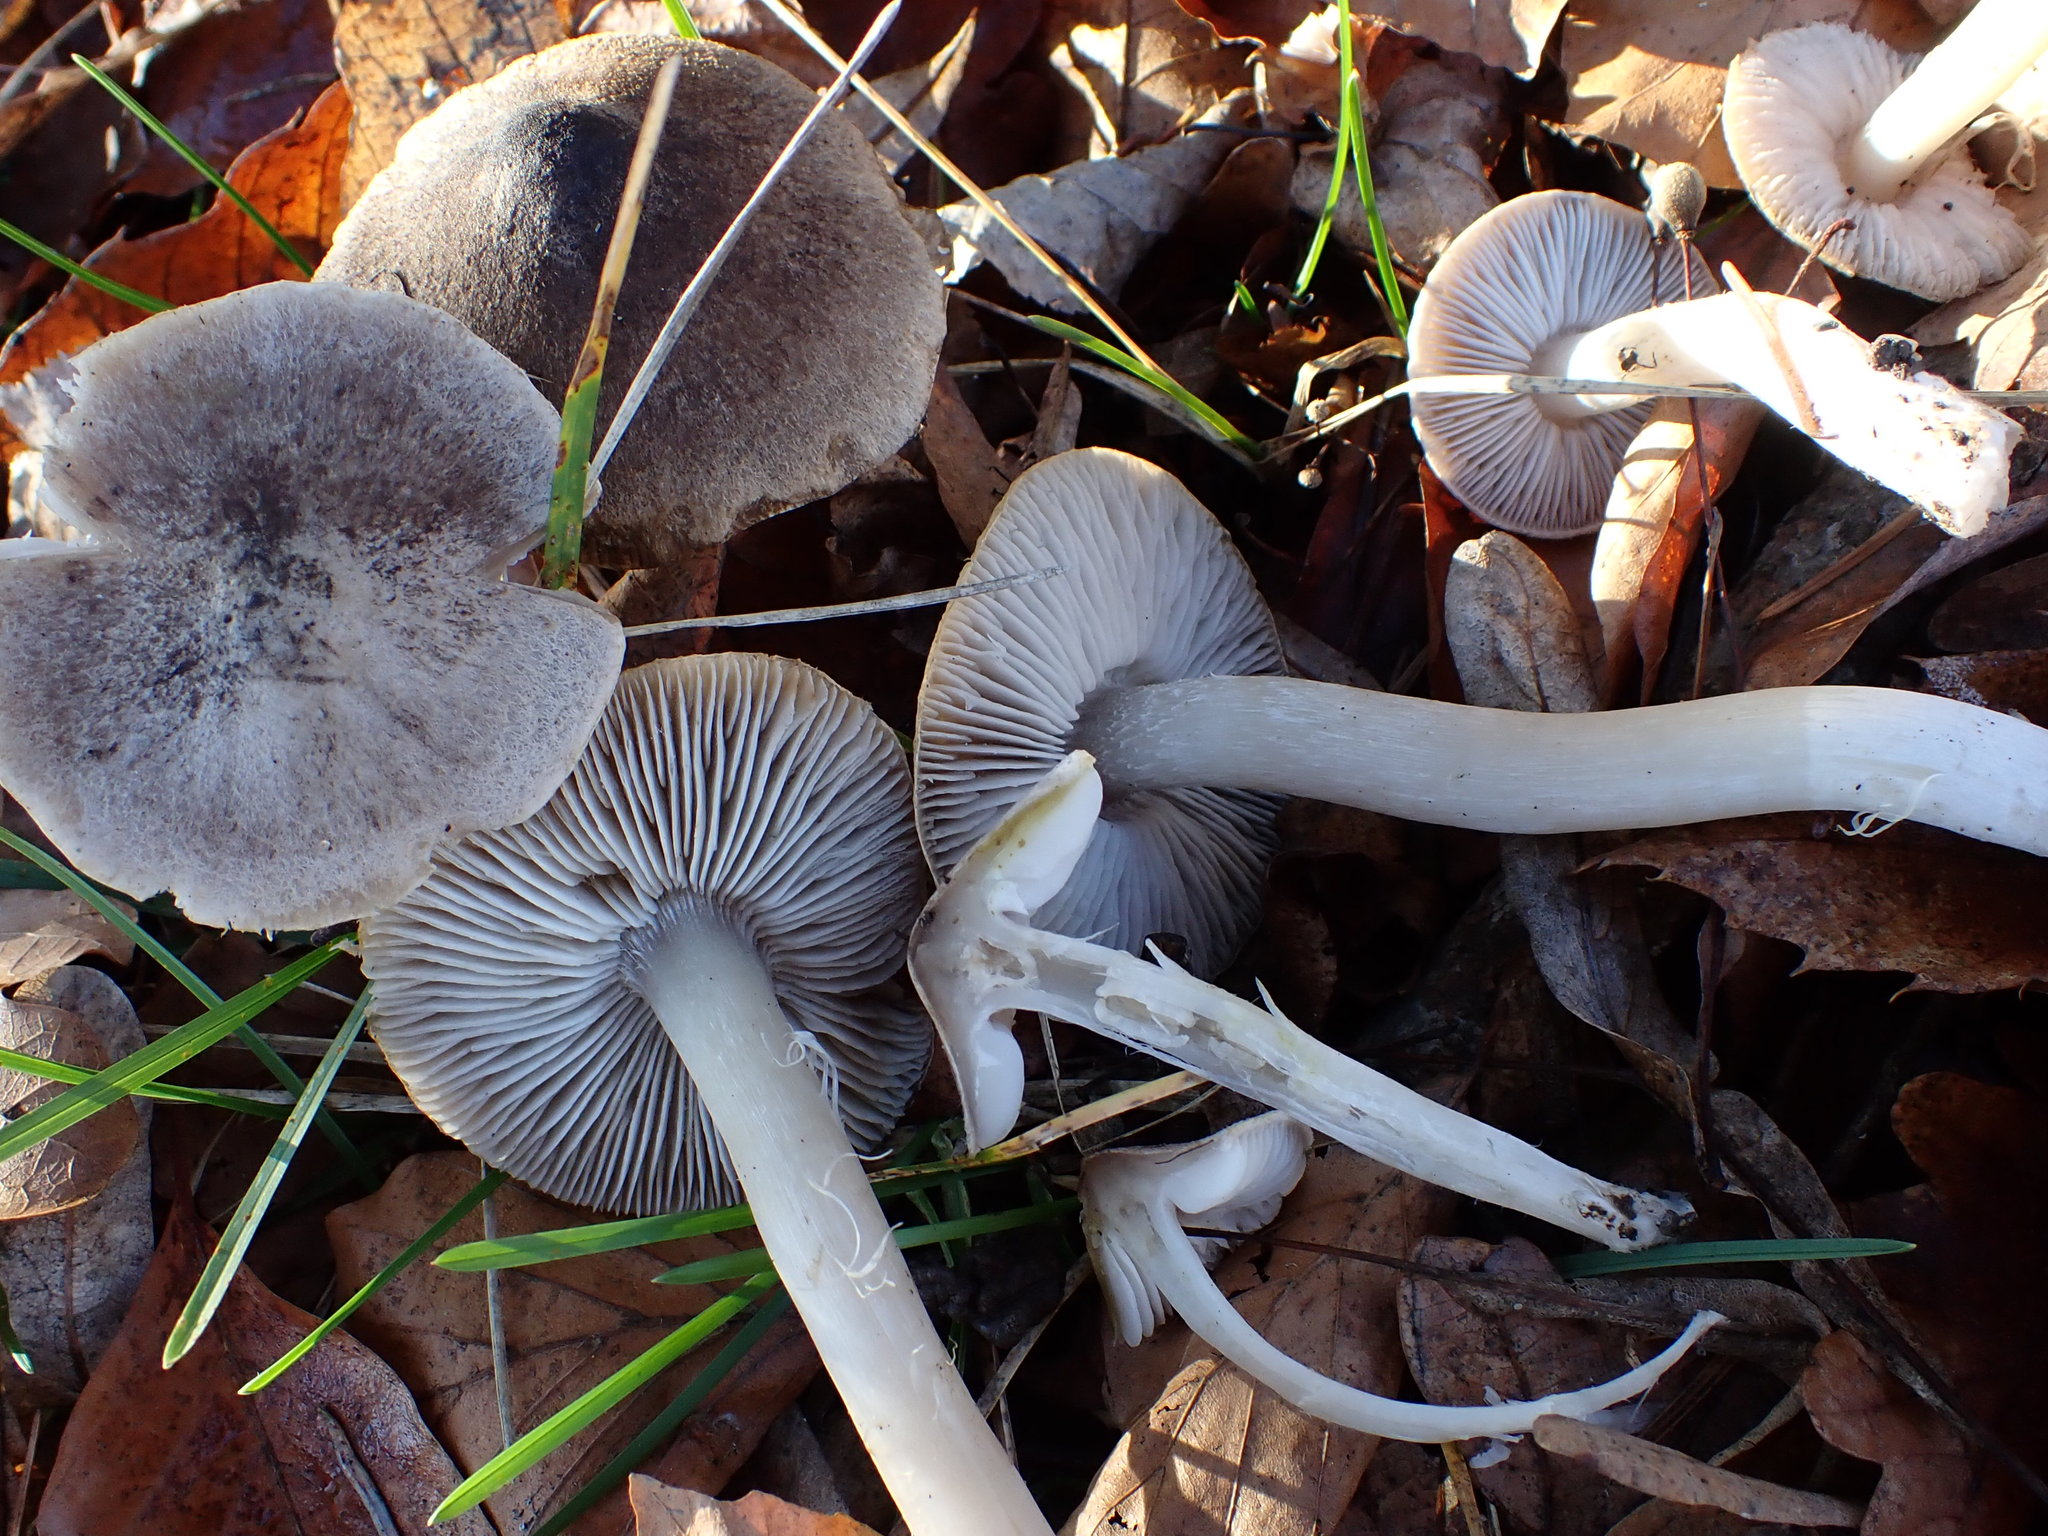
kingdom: Fungi
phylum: Basidiomycota
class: Agaricomycetes
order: Agaricales
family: Tricholomataceae
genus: Tricholoma
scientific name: Tricholoma argyraceum
